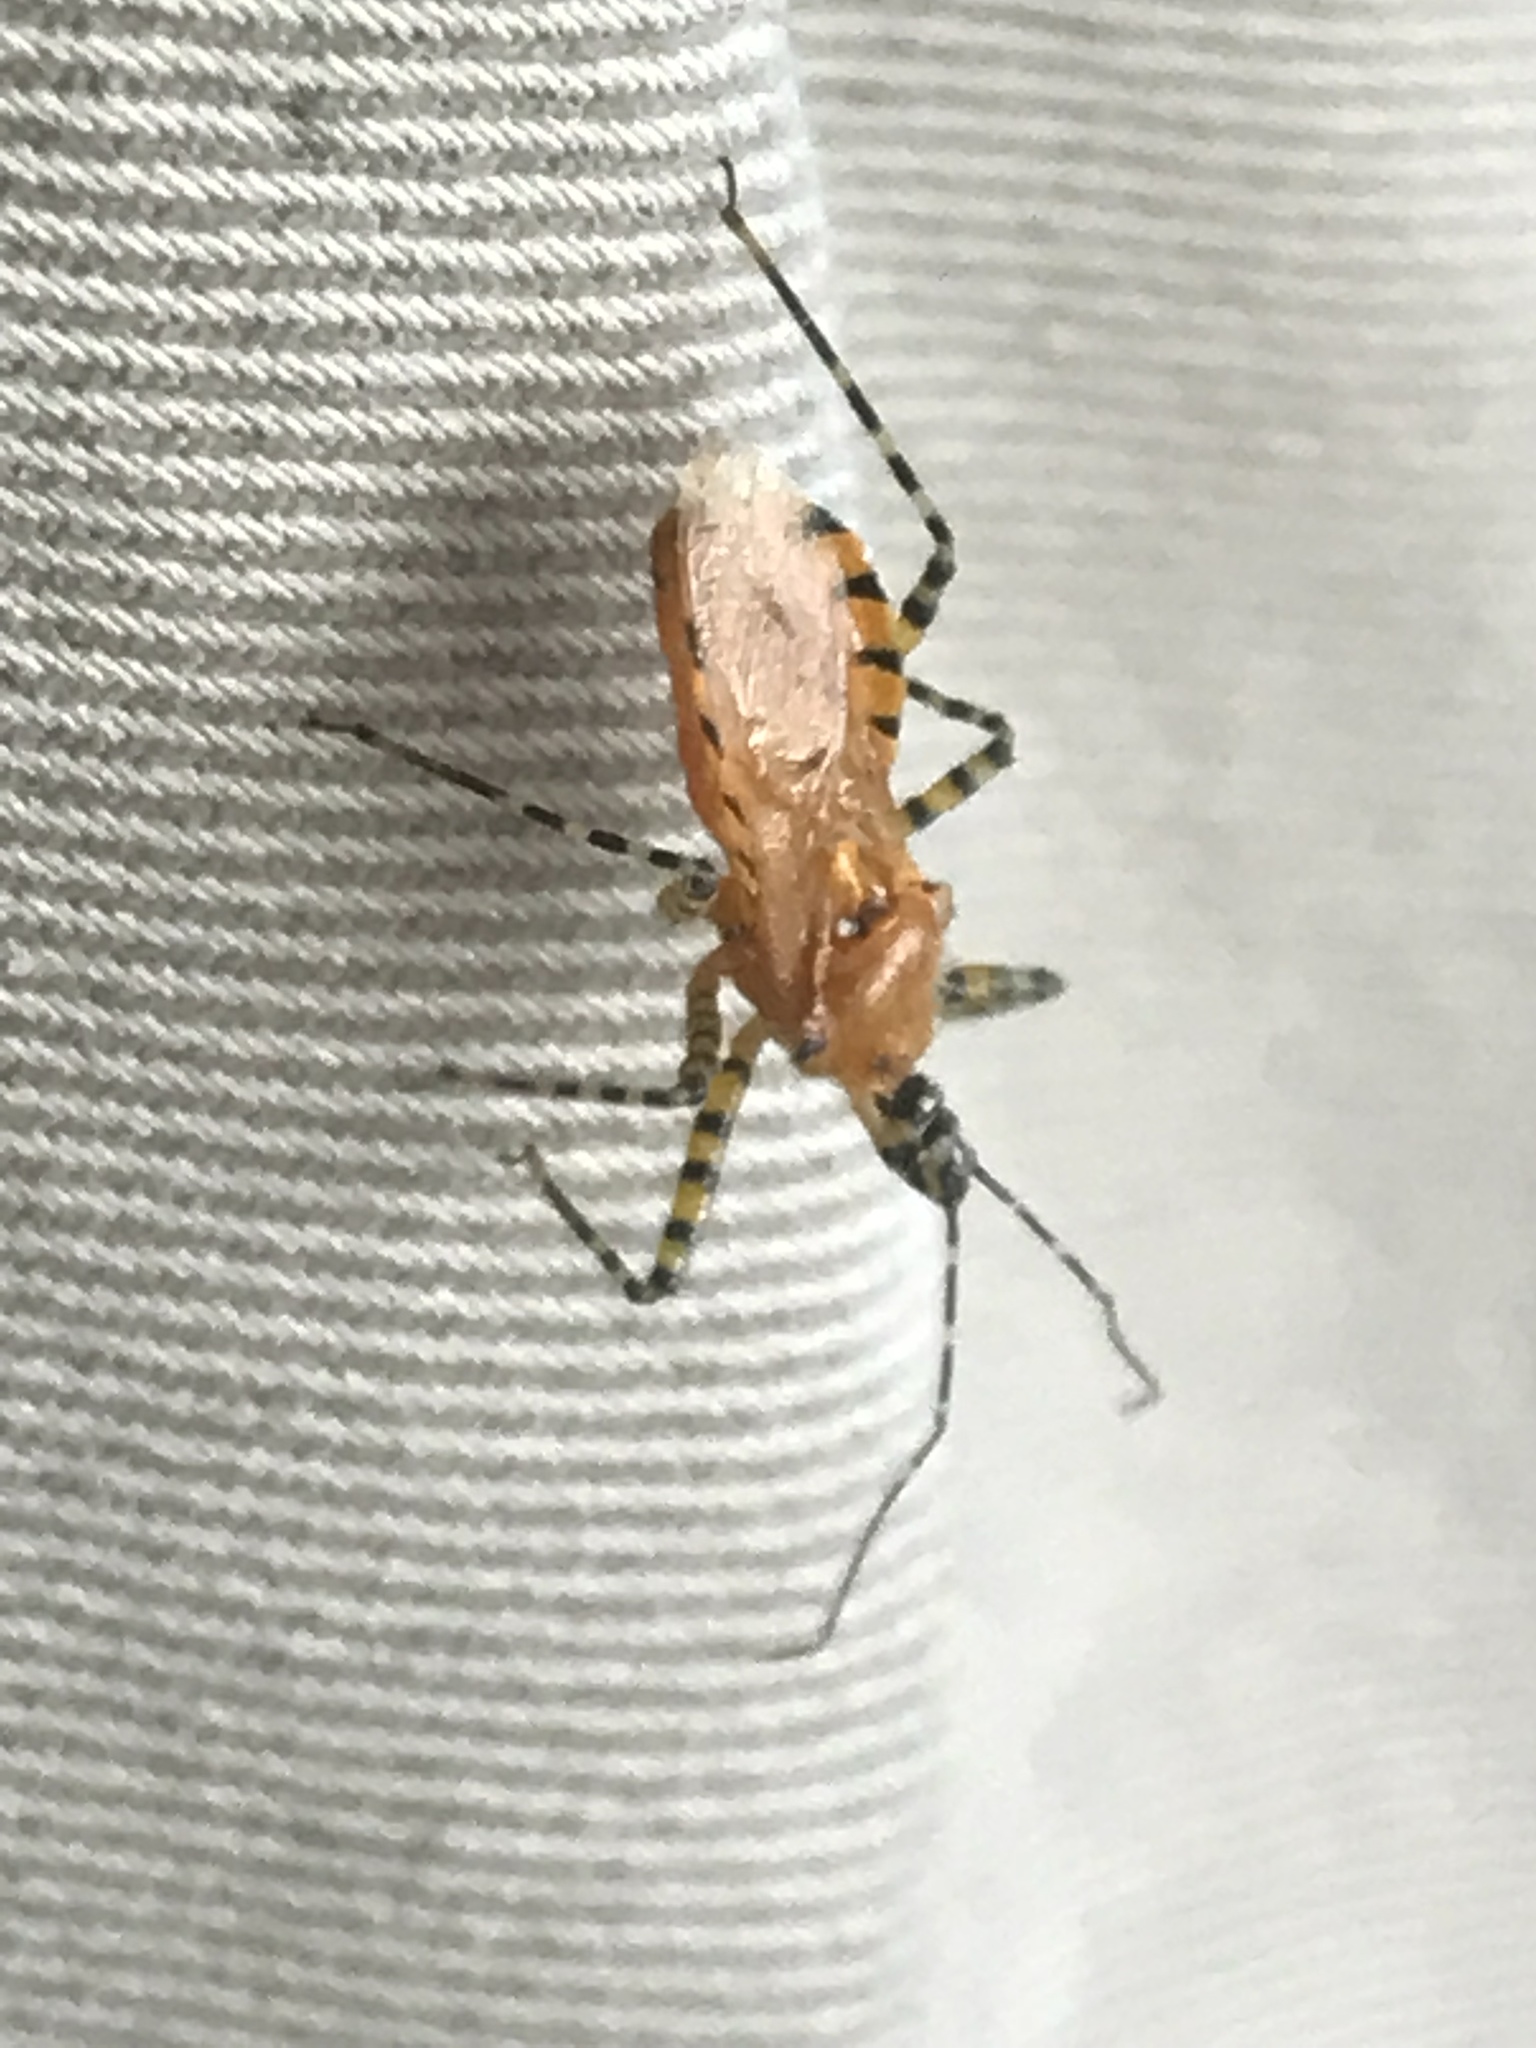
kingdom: Animalia
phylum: Arthropoda
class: Insecta
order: Hemiptera
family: Reduviidae
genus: Pselliopus
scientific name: Pselliopus barberi
